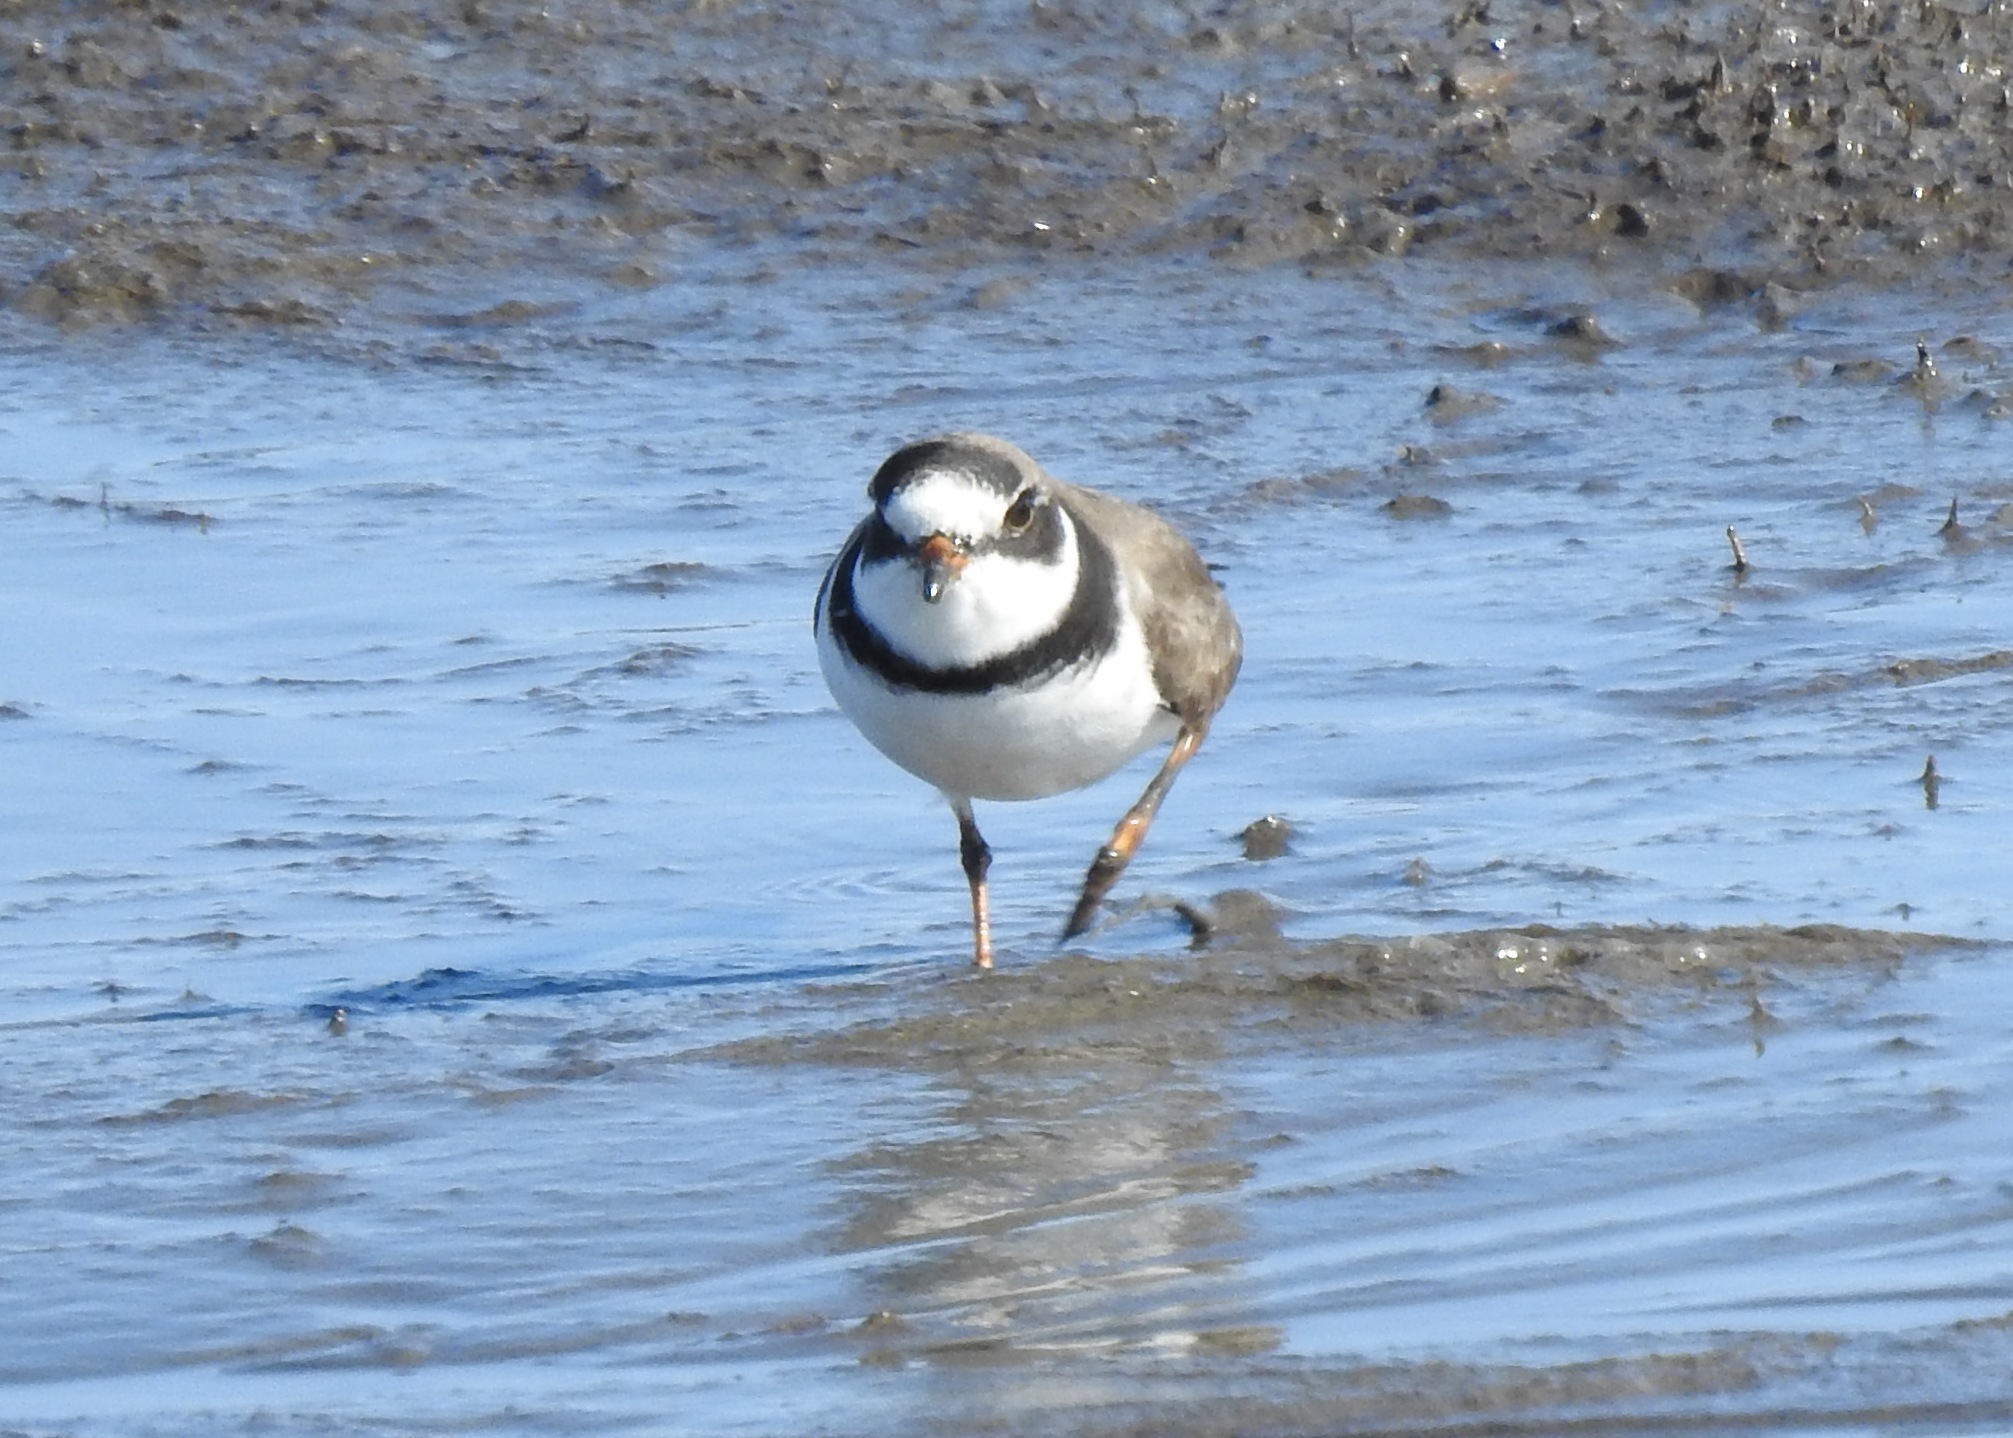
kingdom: Animalia
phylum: Chordata
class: Aves
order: Charadriiformes
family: Charadriidae
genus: Charadrius
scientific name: Charadrius semipalmatus
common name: Semipalmated plover
